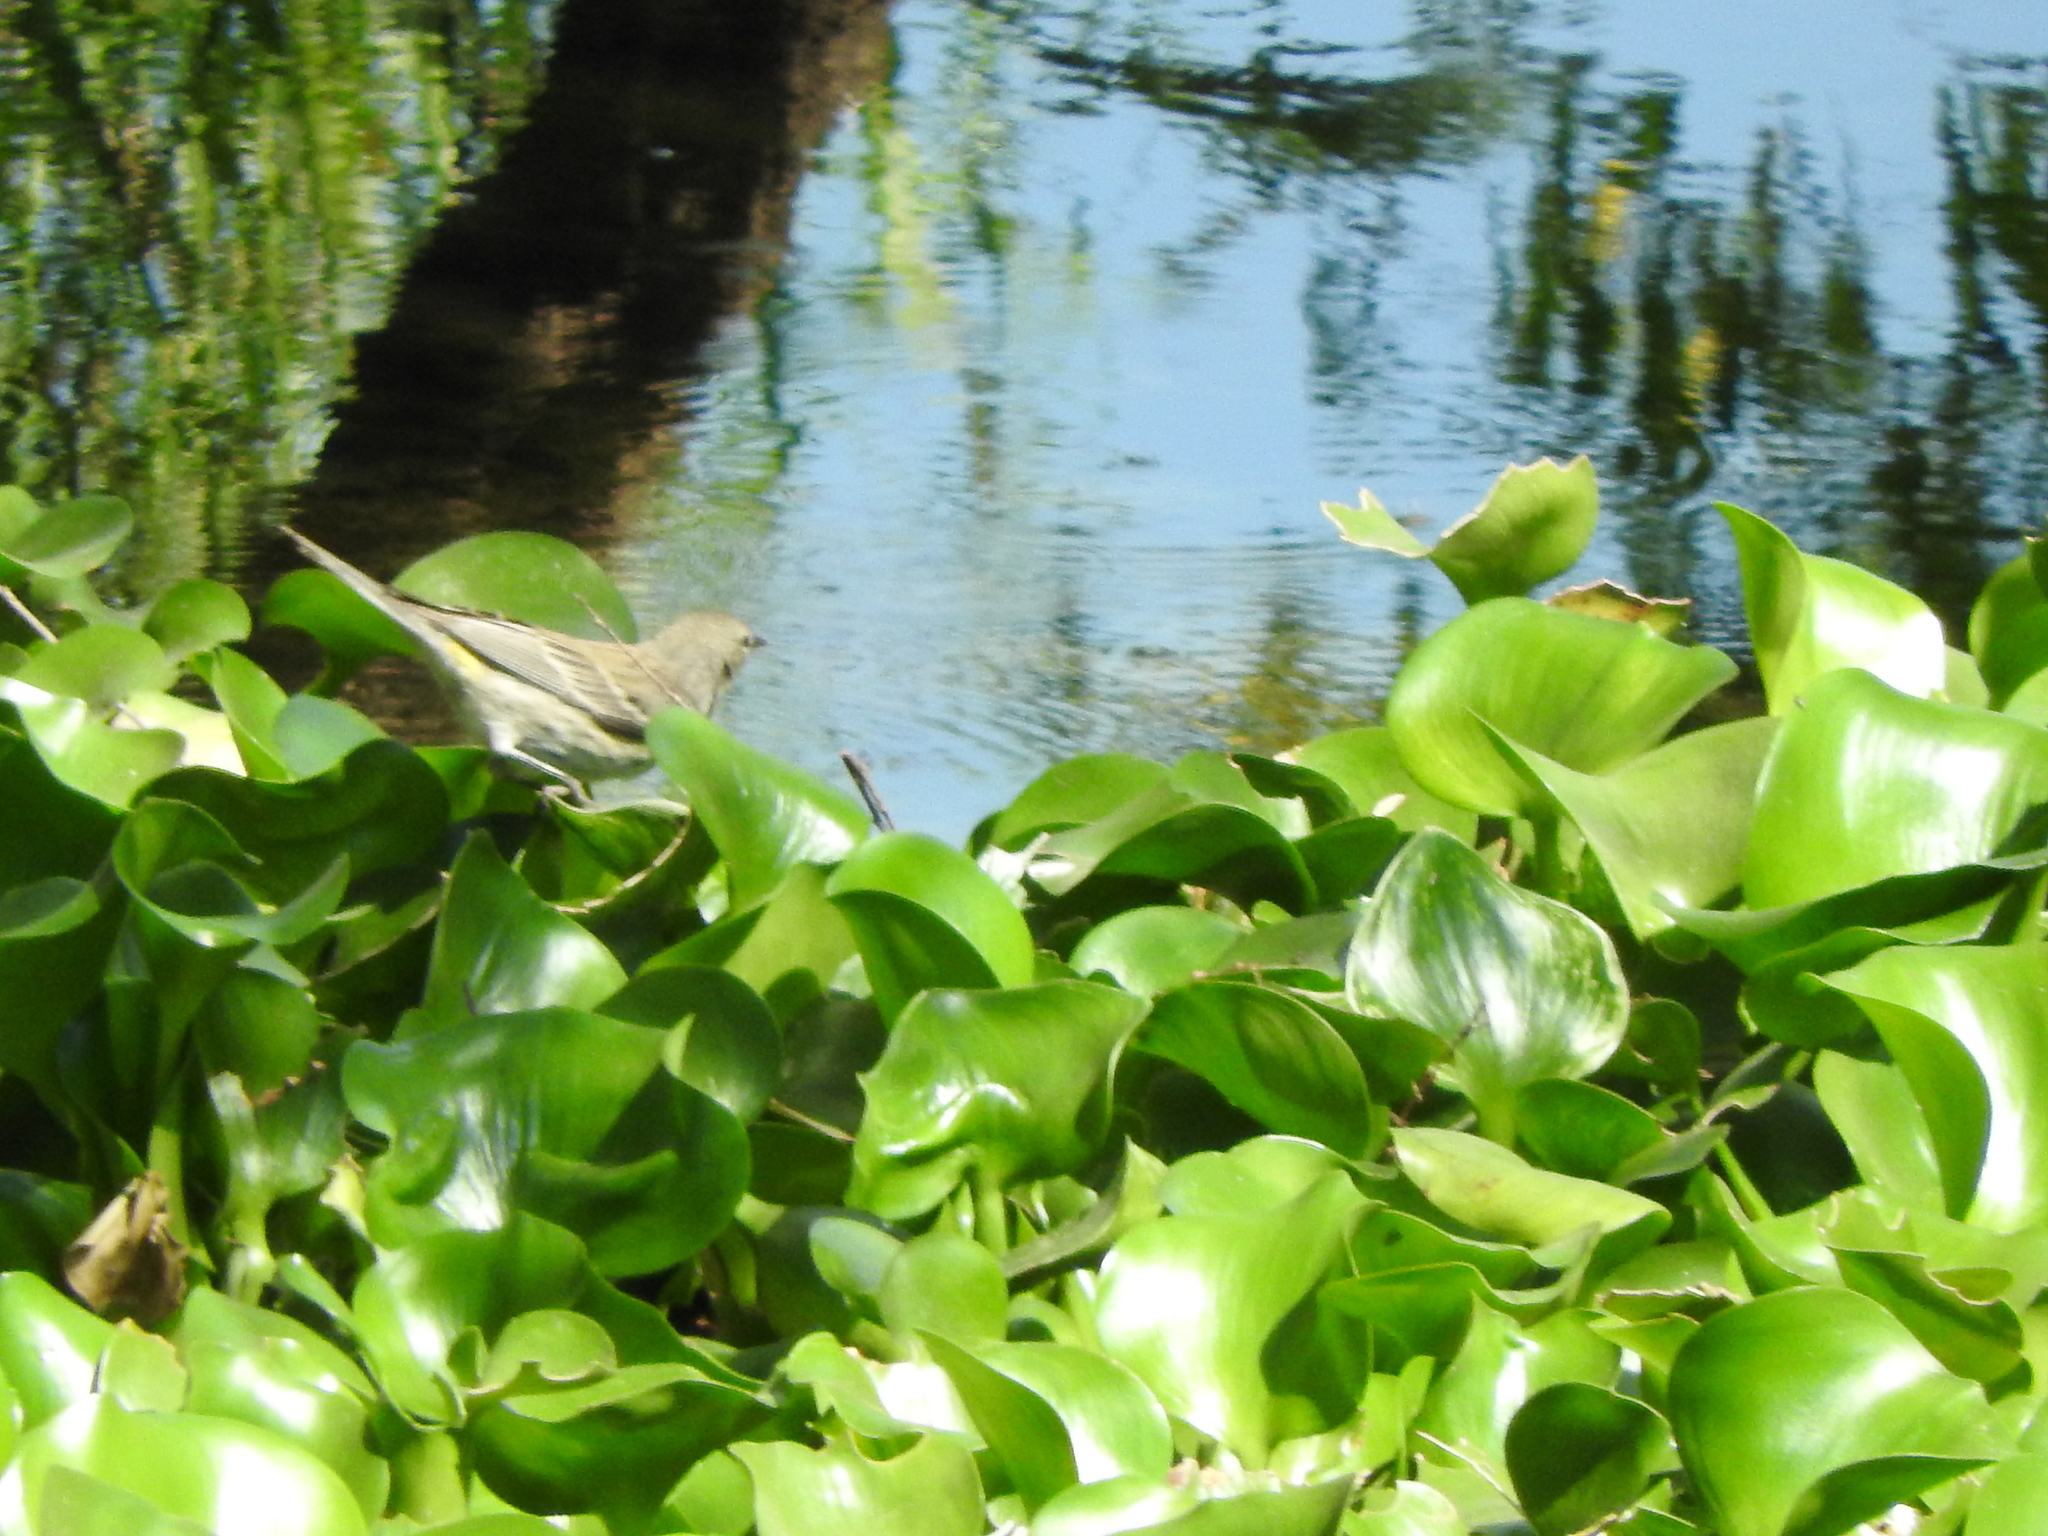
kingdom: Animalia
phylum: Chordata
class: Aves
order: Passeriformes
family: Parulidae
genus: Setophaga
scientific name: Setophaga coronata
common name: Myrtle warbler
